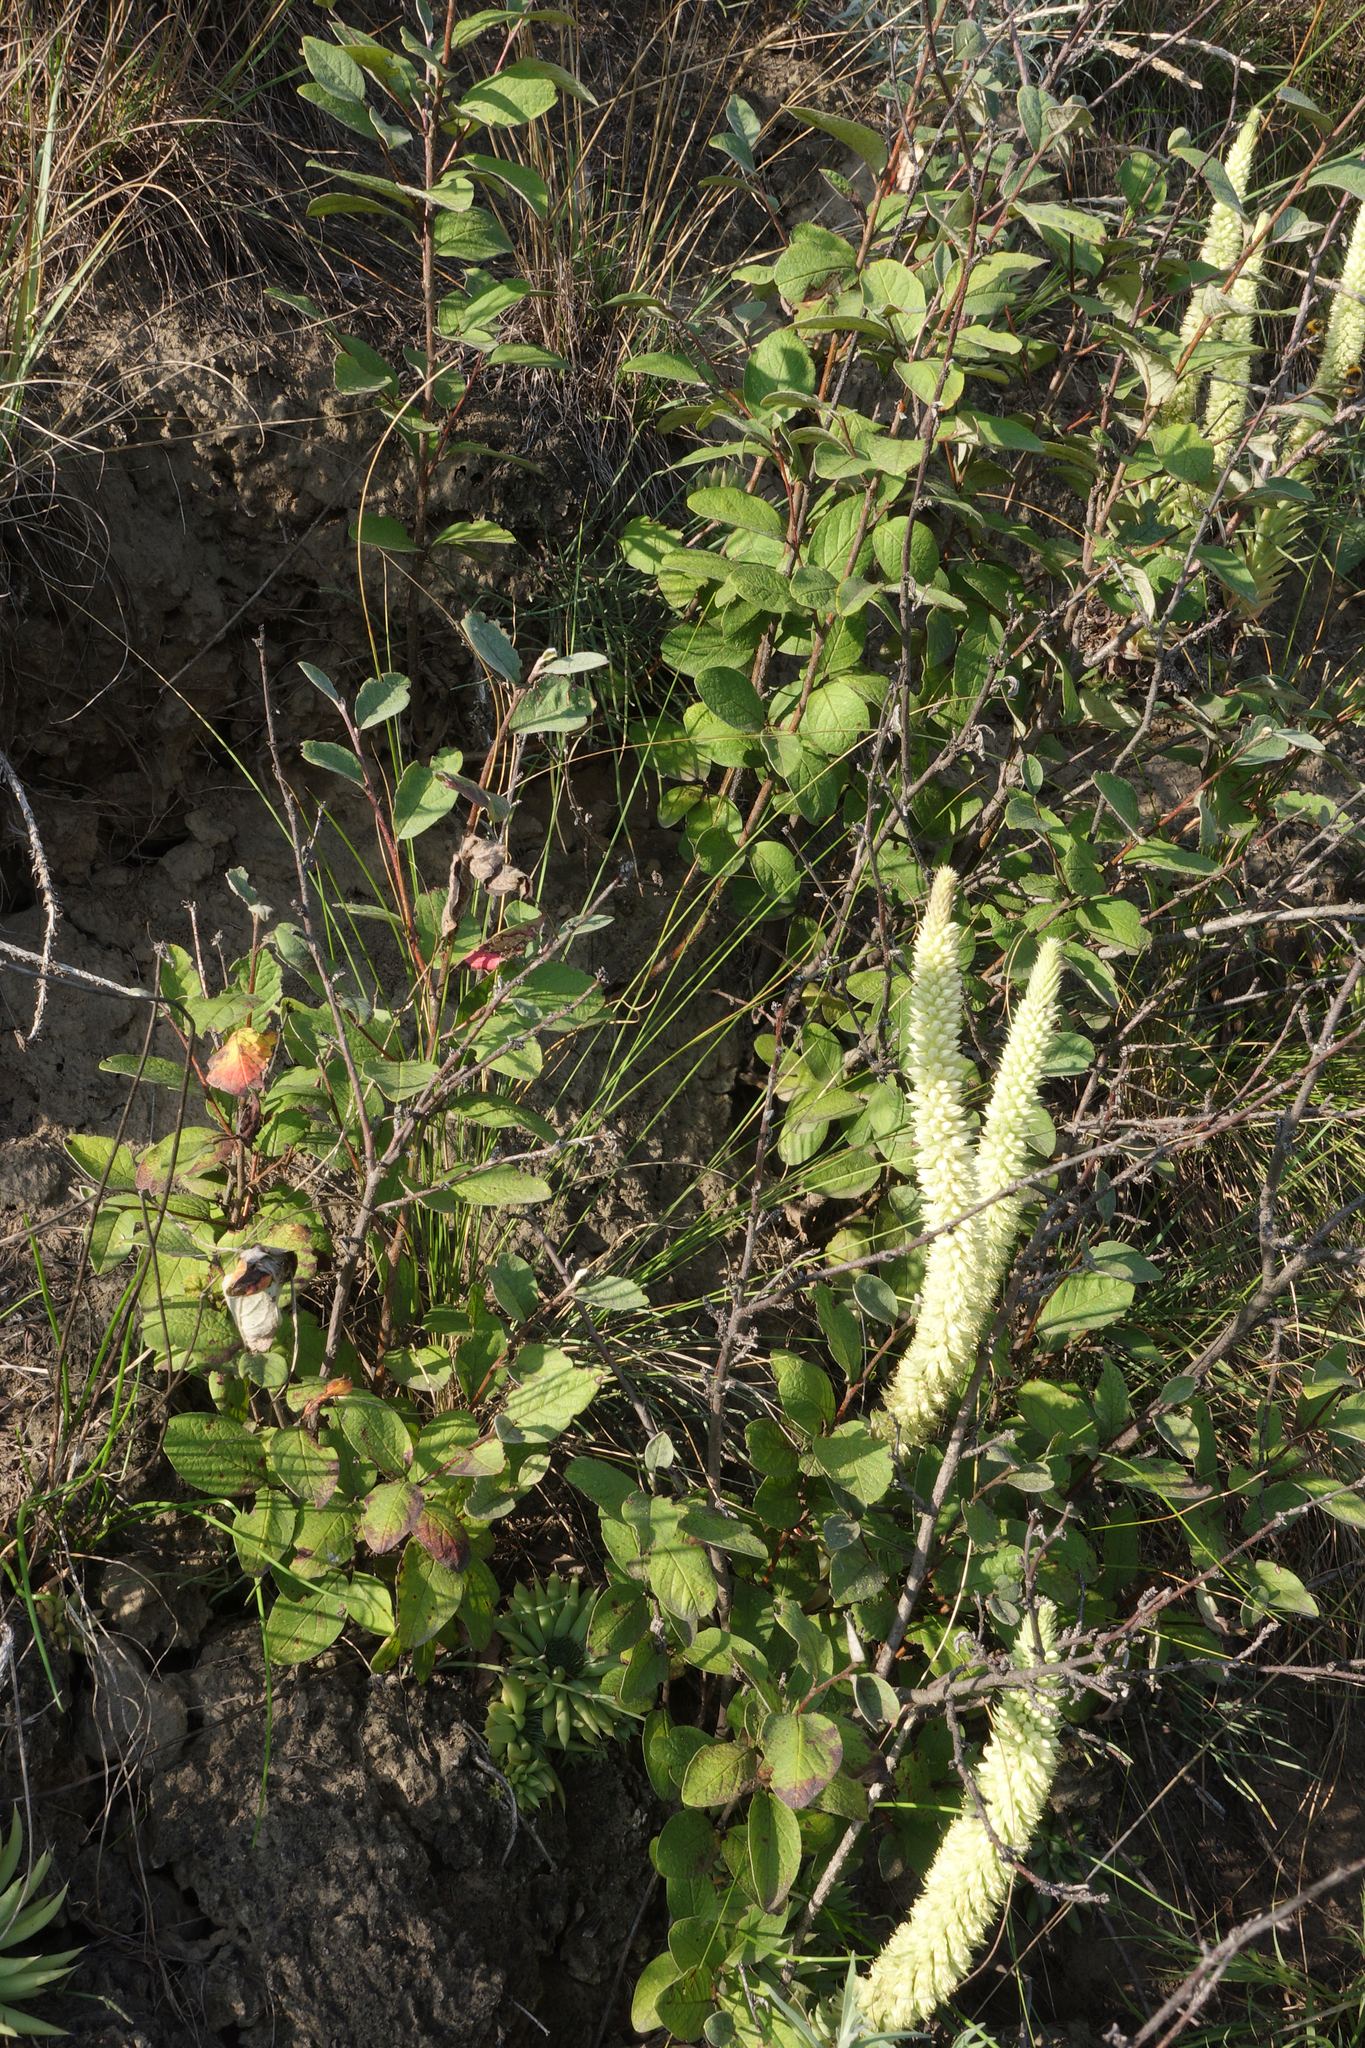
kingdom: Plantae
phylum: Tracheophyta
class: Magnoliopsida
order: Rosales
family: Rosaceae
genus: Cotoneaster
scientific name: Cotoneaster melanocarpus
